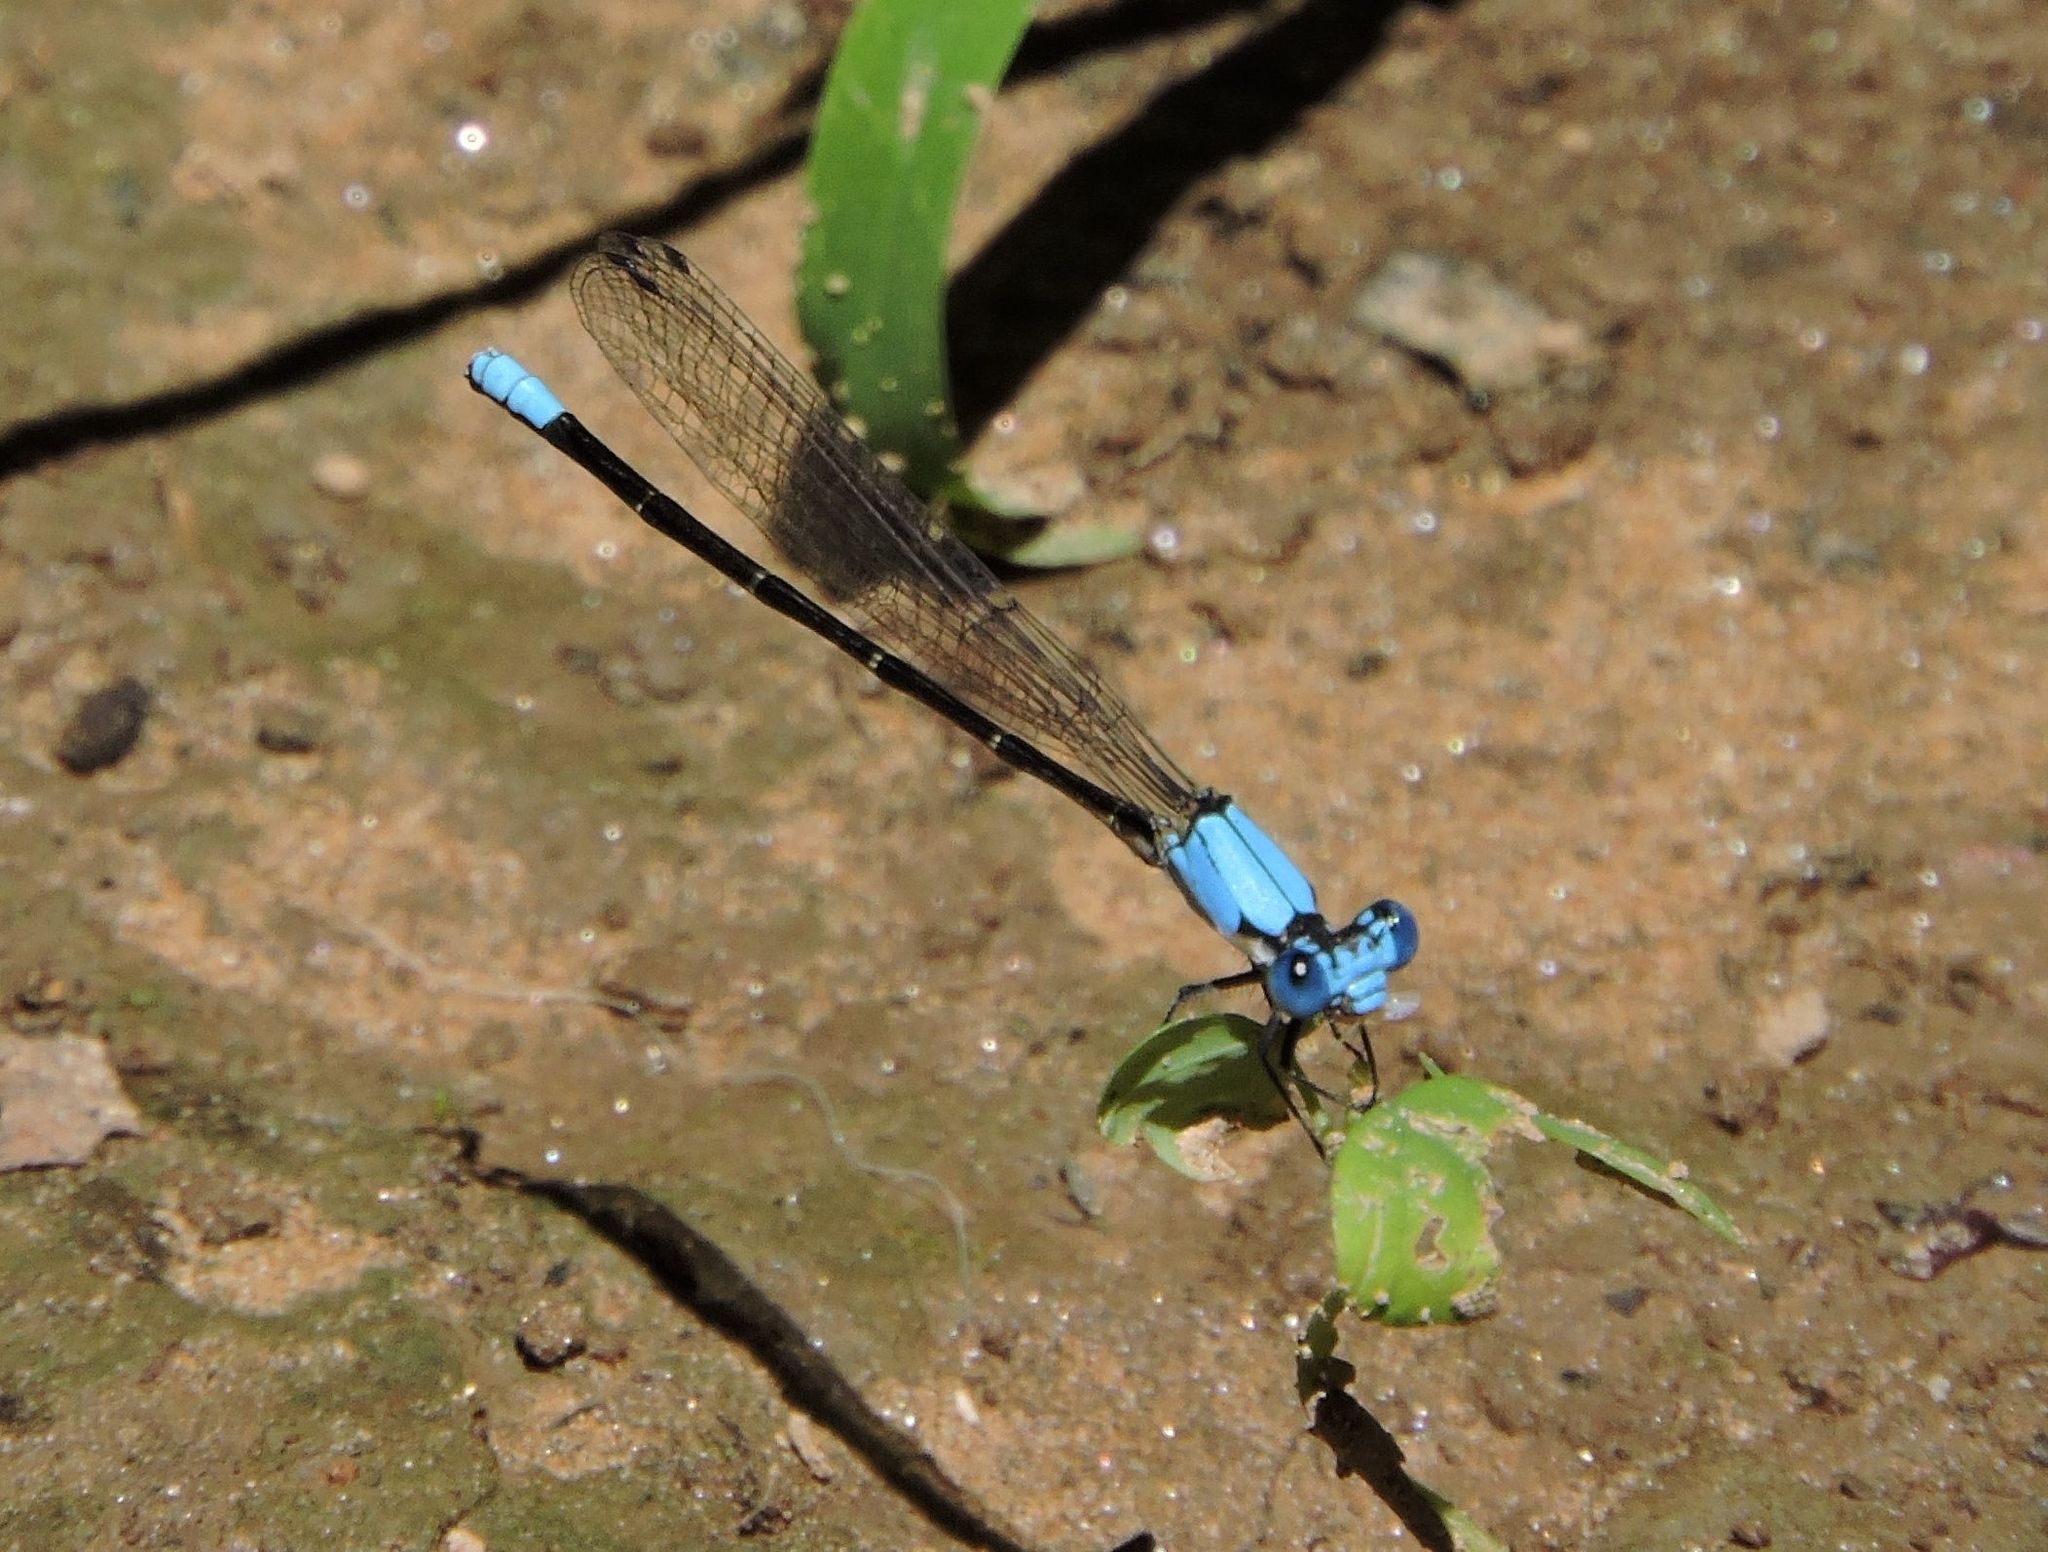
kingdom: Animalia
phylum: Arthropoda
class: Insecta
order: Odonata
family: Coenagrionidae
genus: Argia
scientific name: Argia apicalis
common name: Blue-fronted dancer
